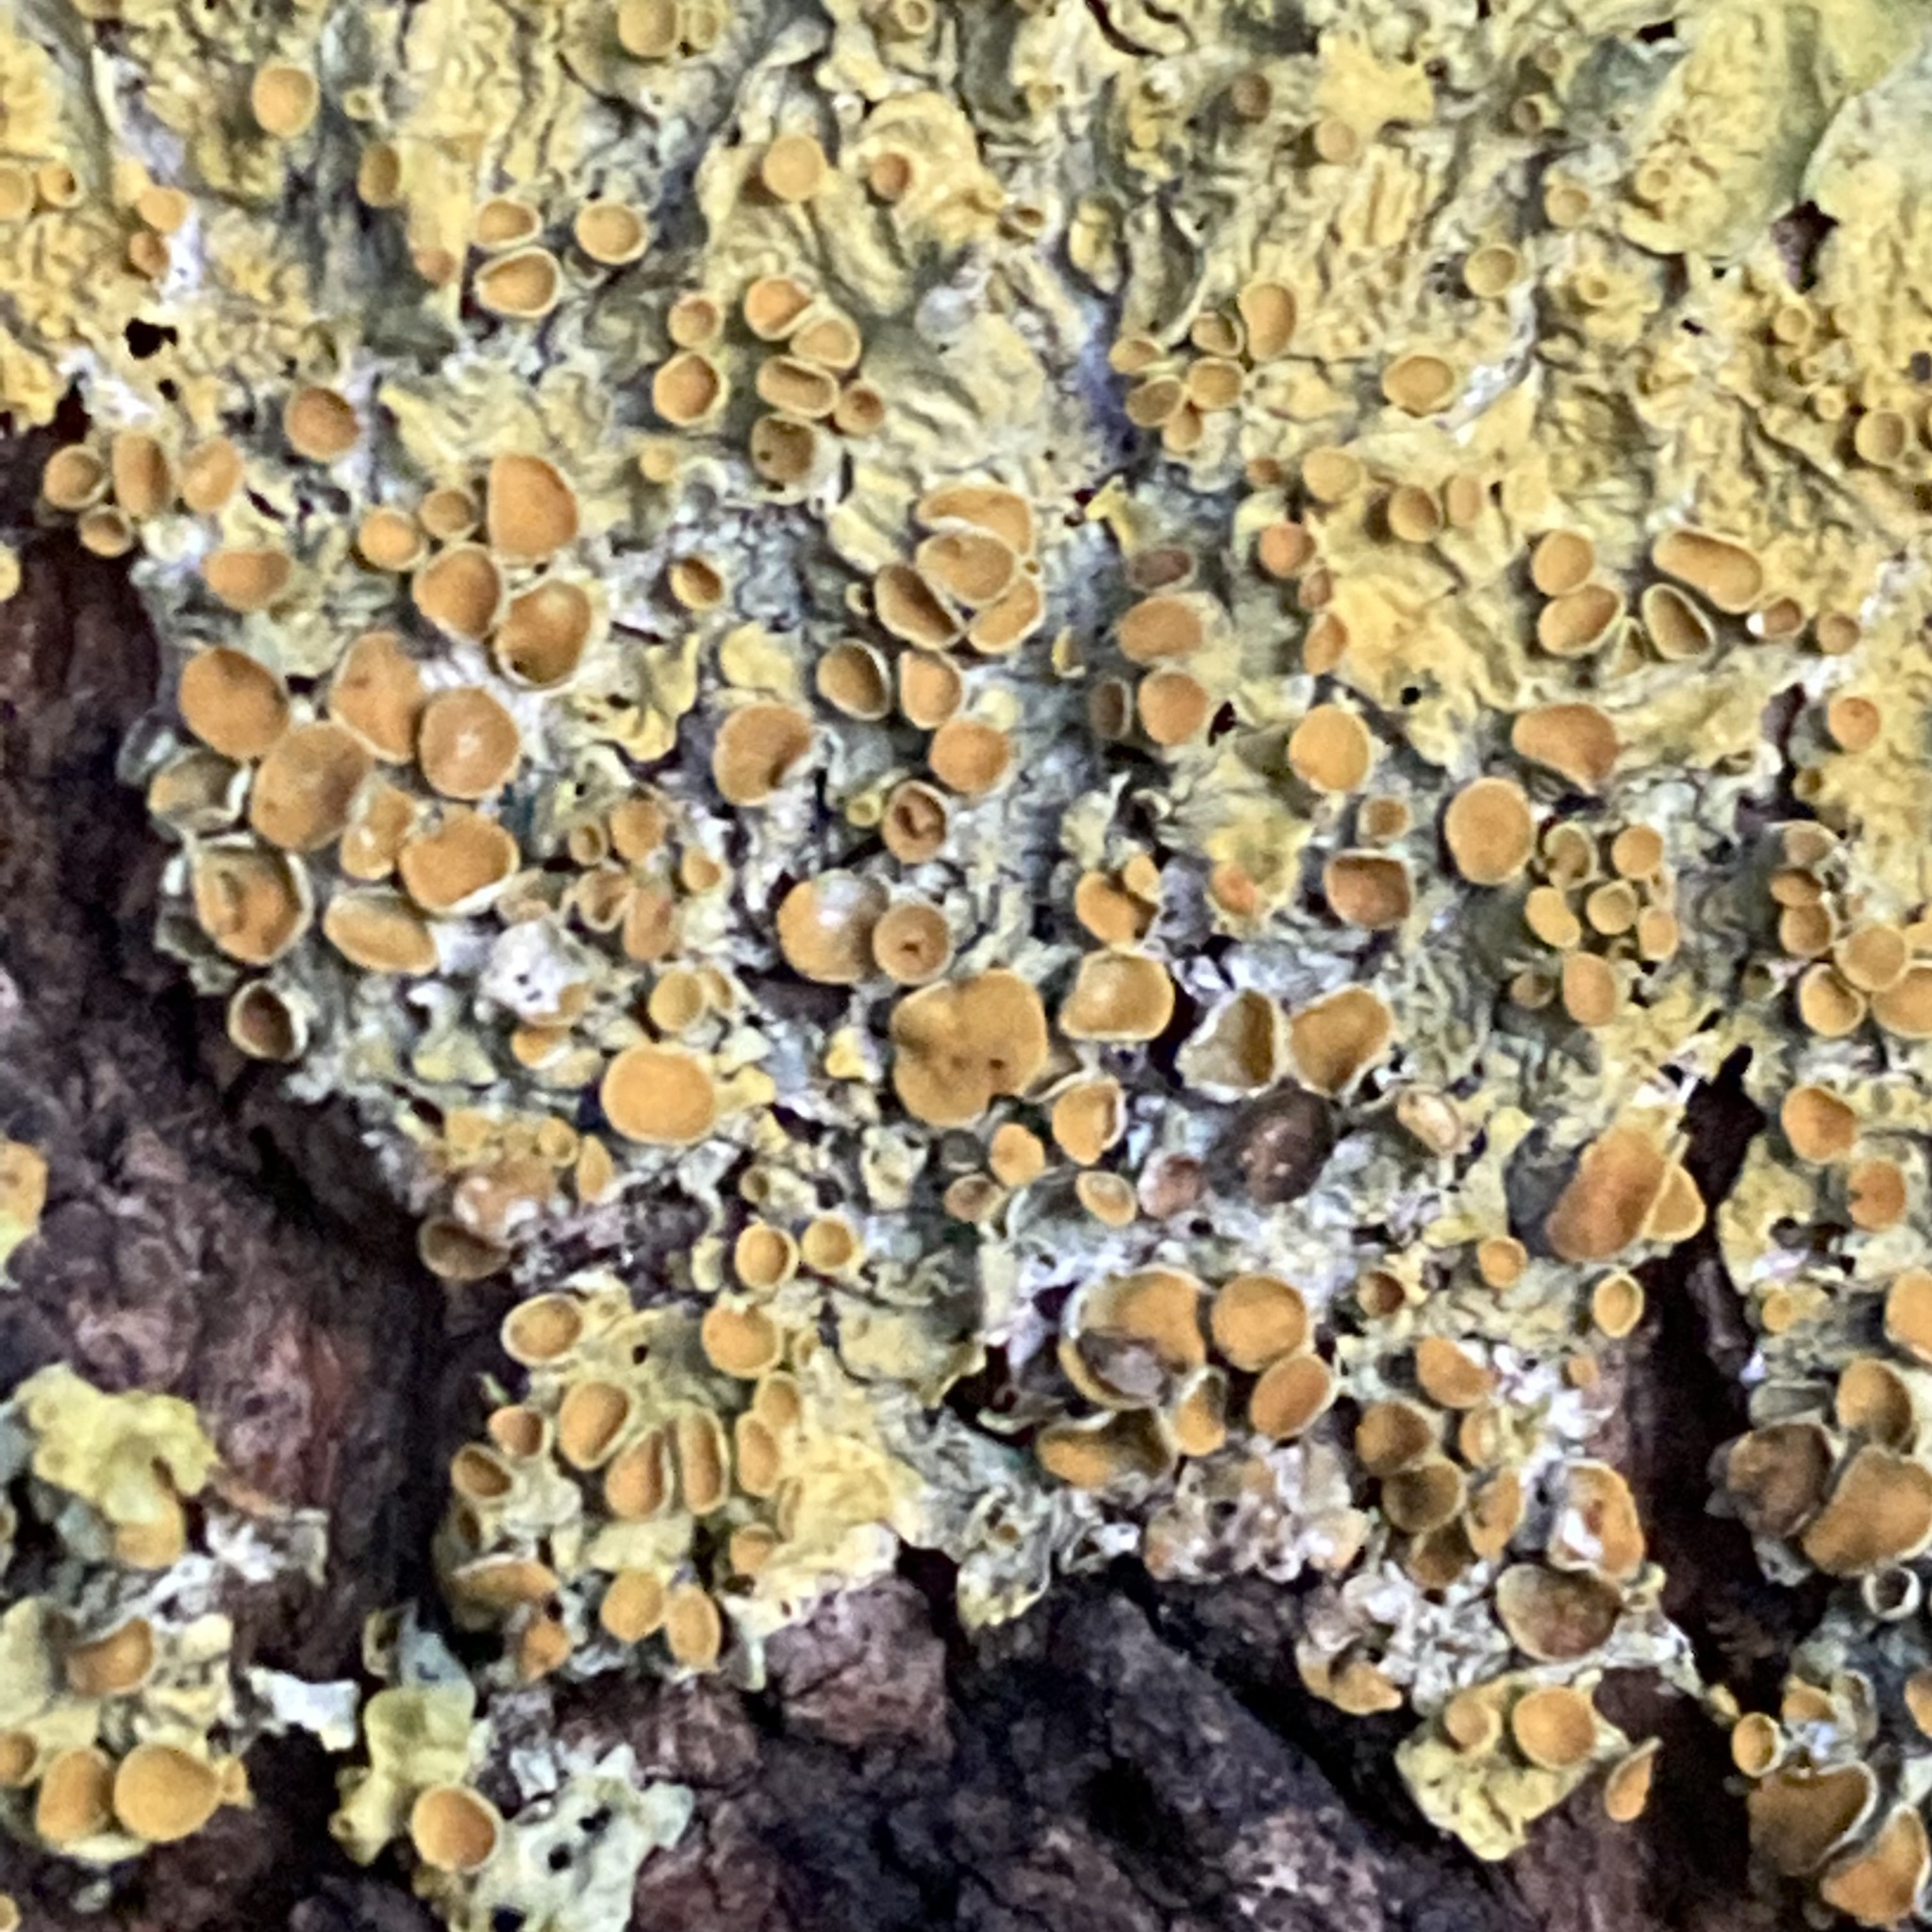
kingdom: Fungi
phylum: Ascomycota
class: Lecanoromycetes
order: Teloschistales
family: Teloschistaceae
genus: Xanthoria
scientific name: Xanthoria parietina
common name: Common orange lichen
